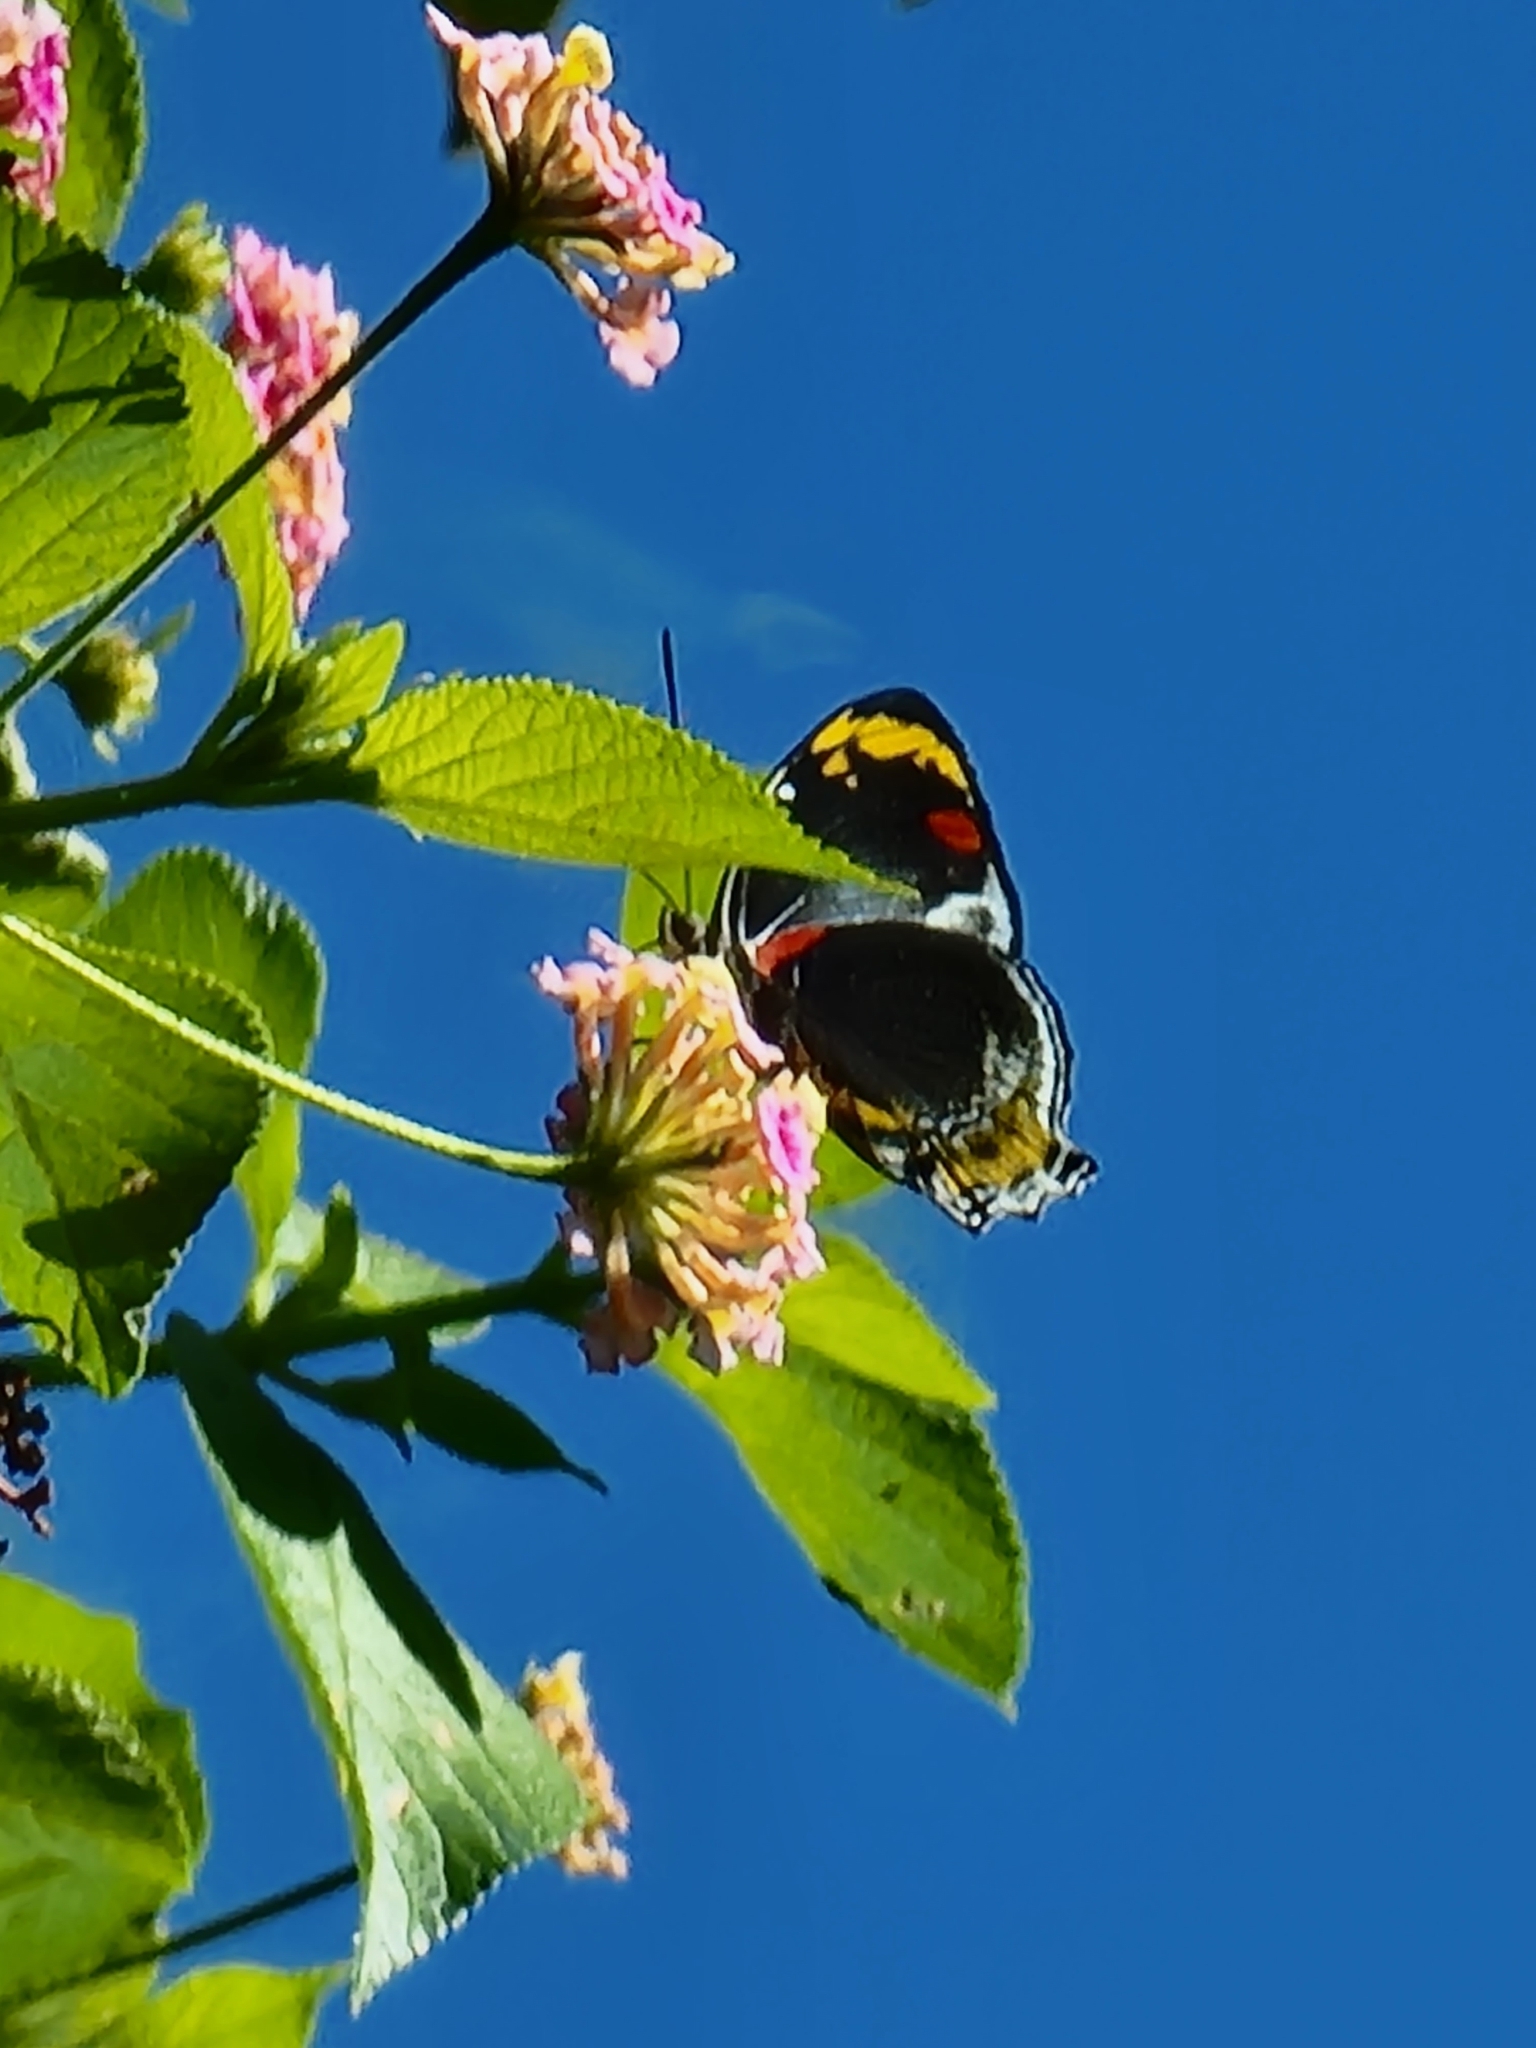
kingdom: Animalia
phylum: Arthropoda
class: Insecta
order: Lepidoptera
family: Nymphalidae
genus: Mynes
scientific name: Mynes geoffroyi
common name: Jezebel nymph
